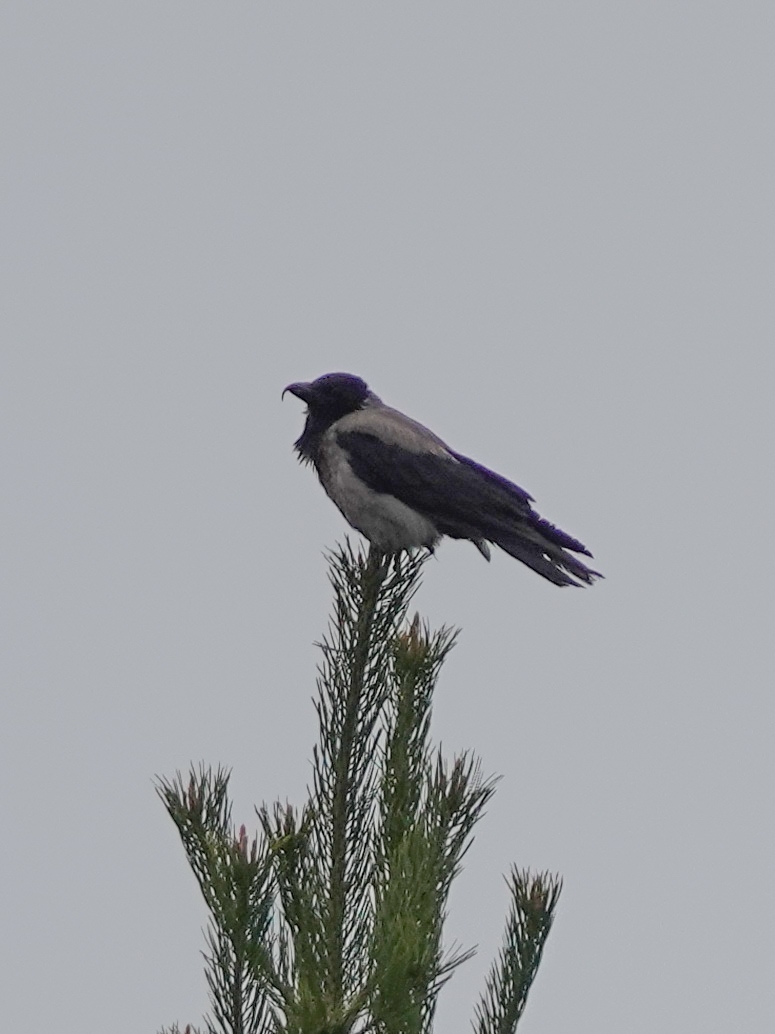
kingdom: Animalia
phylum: Chordata
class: Aves
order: Passeriformes
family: Corvidae
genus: Corvus
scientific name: Corvus cornix
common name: Hooded crow
